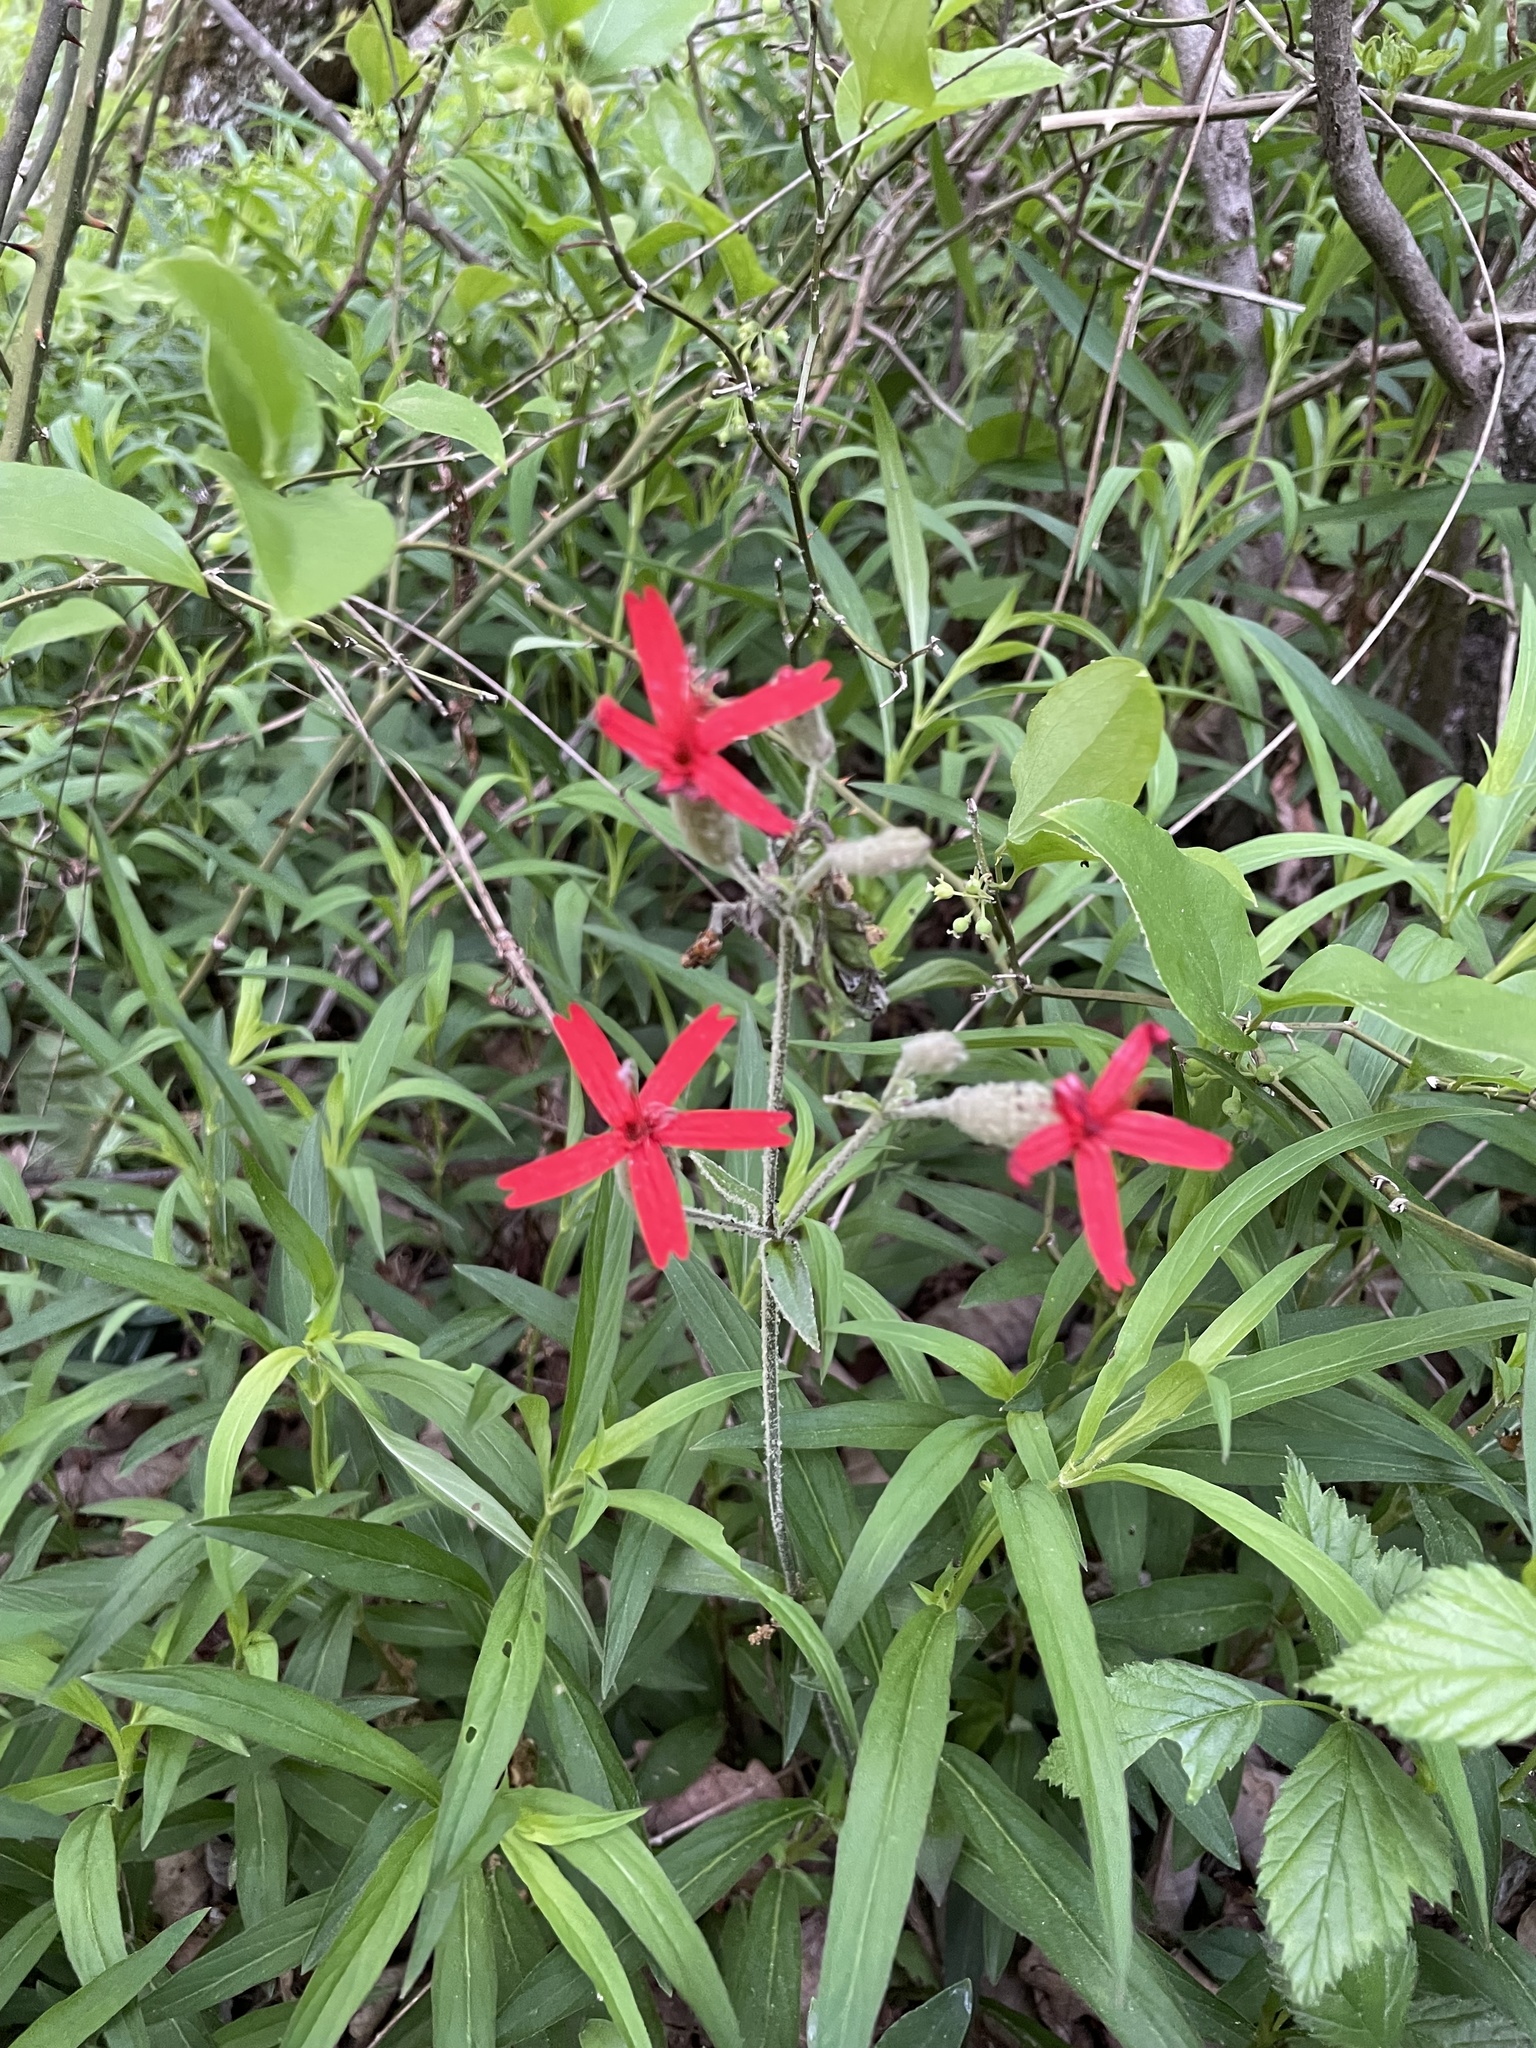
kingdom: Plantae
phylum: Tracheophyta
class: Magnoliopsida
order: Caryophyllales
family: Caryophyllaceae
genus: Silene
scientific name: Silene virginica
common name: Fire-pink
